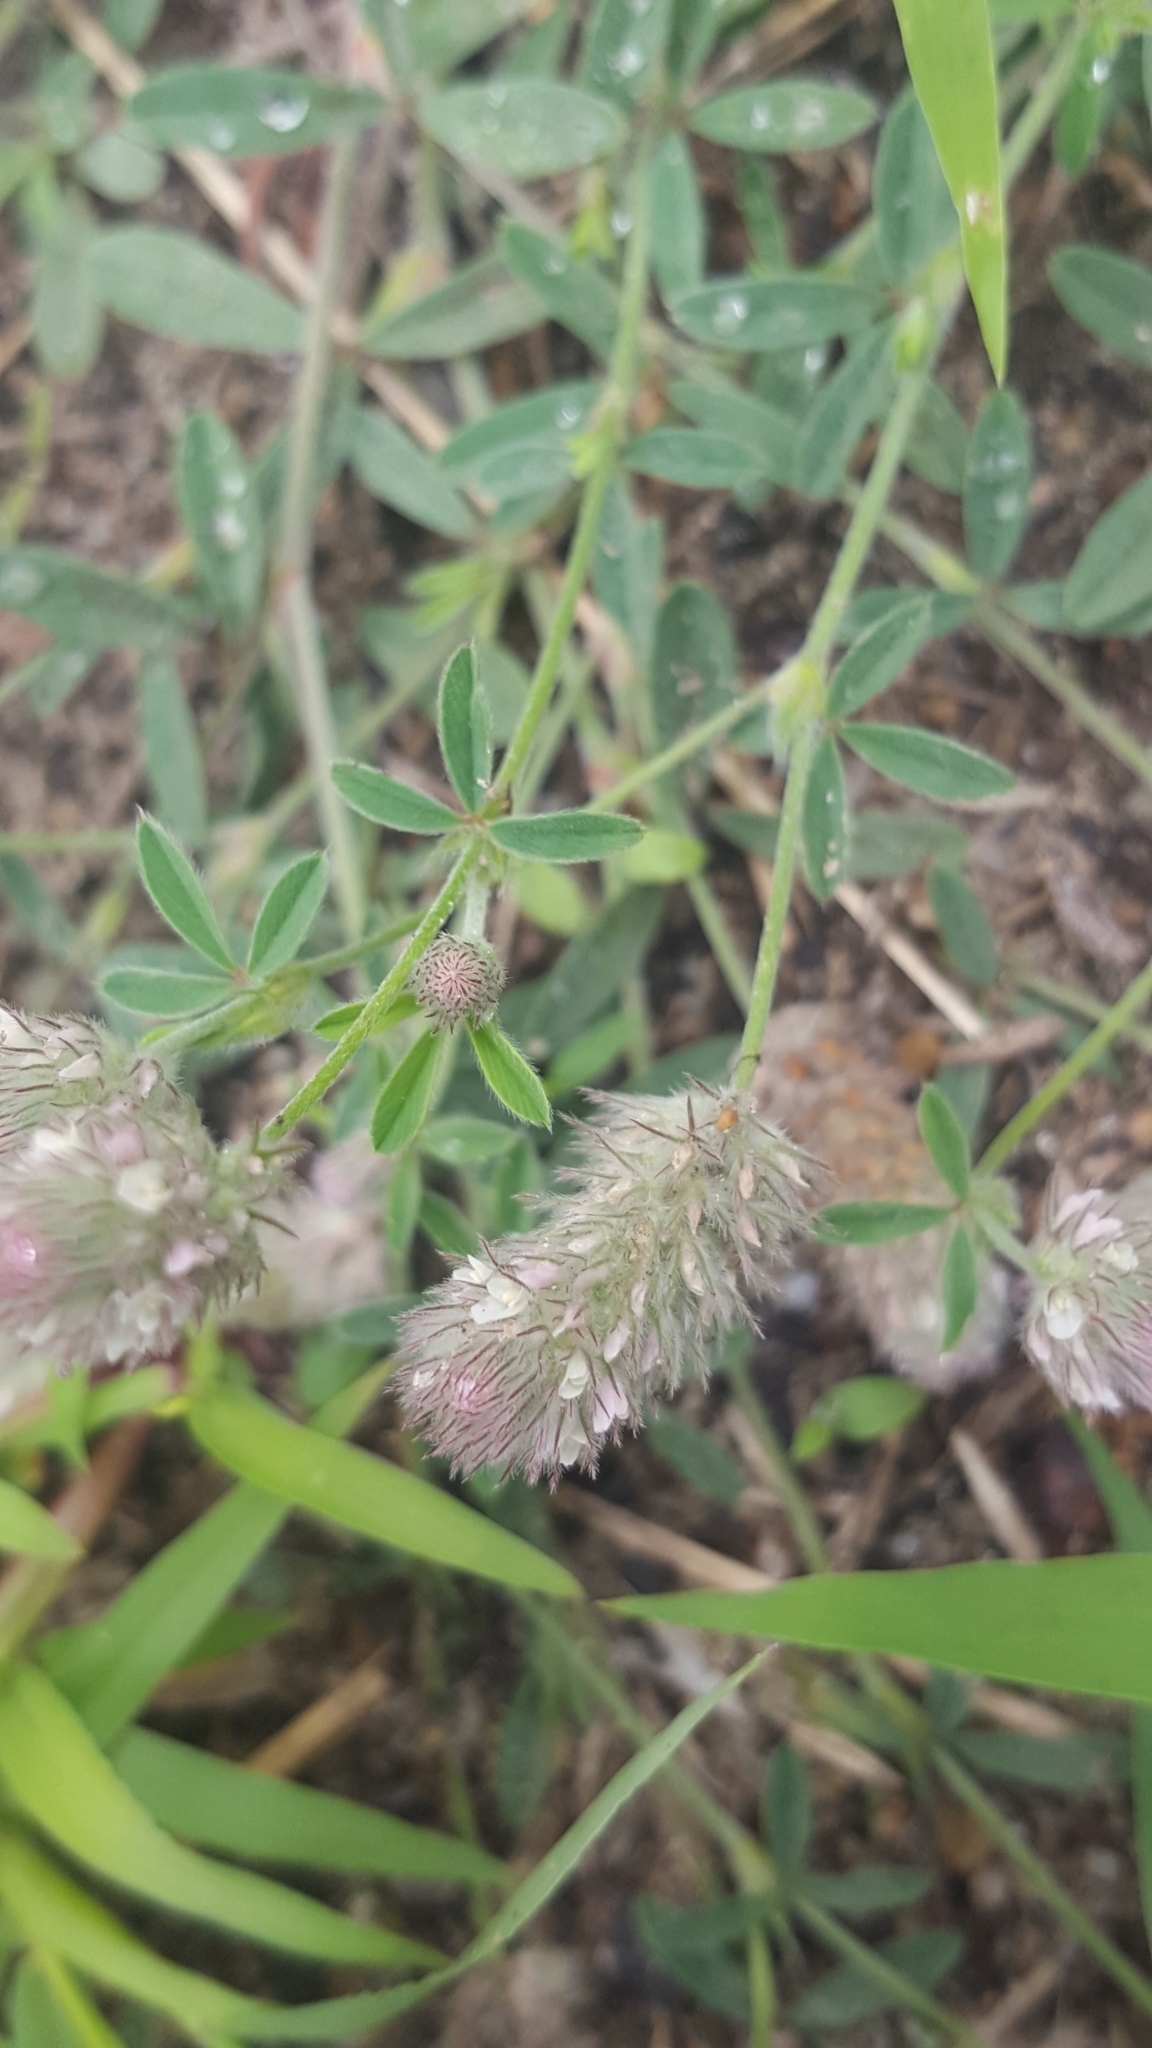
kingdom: Plantae
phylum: Tracheophyta
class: Magnoliopsida
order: Fabales
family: Fabaceae
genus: Trifolium
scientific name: Trifolium arvense
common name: Hare's-foot clover
